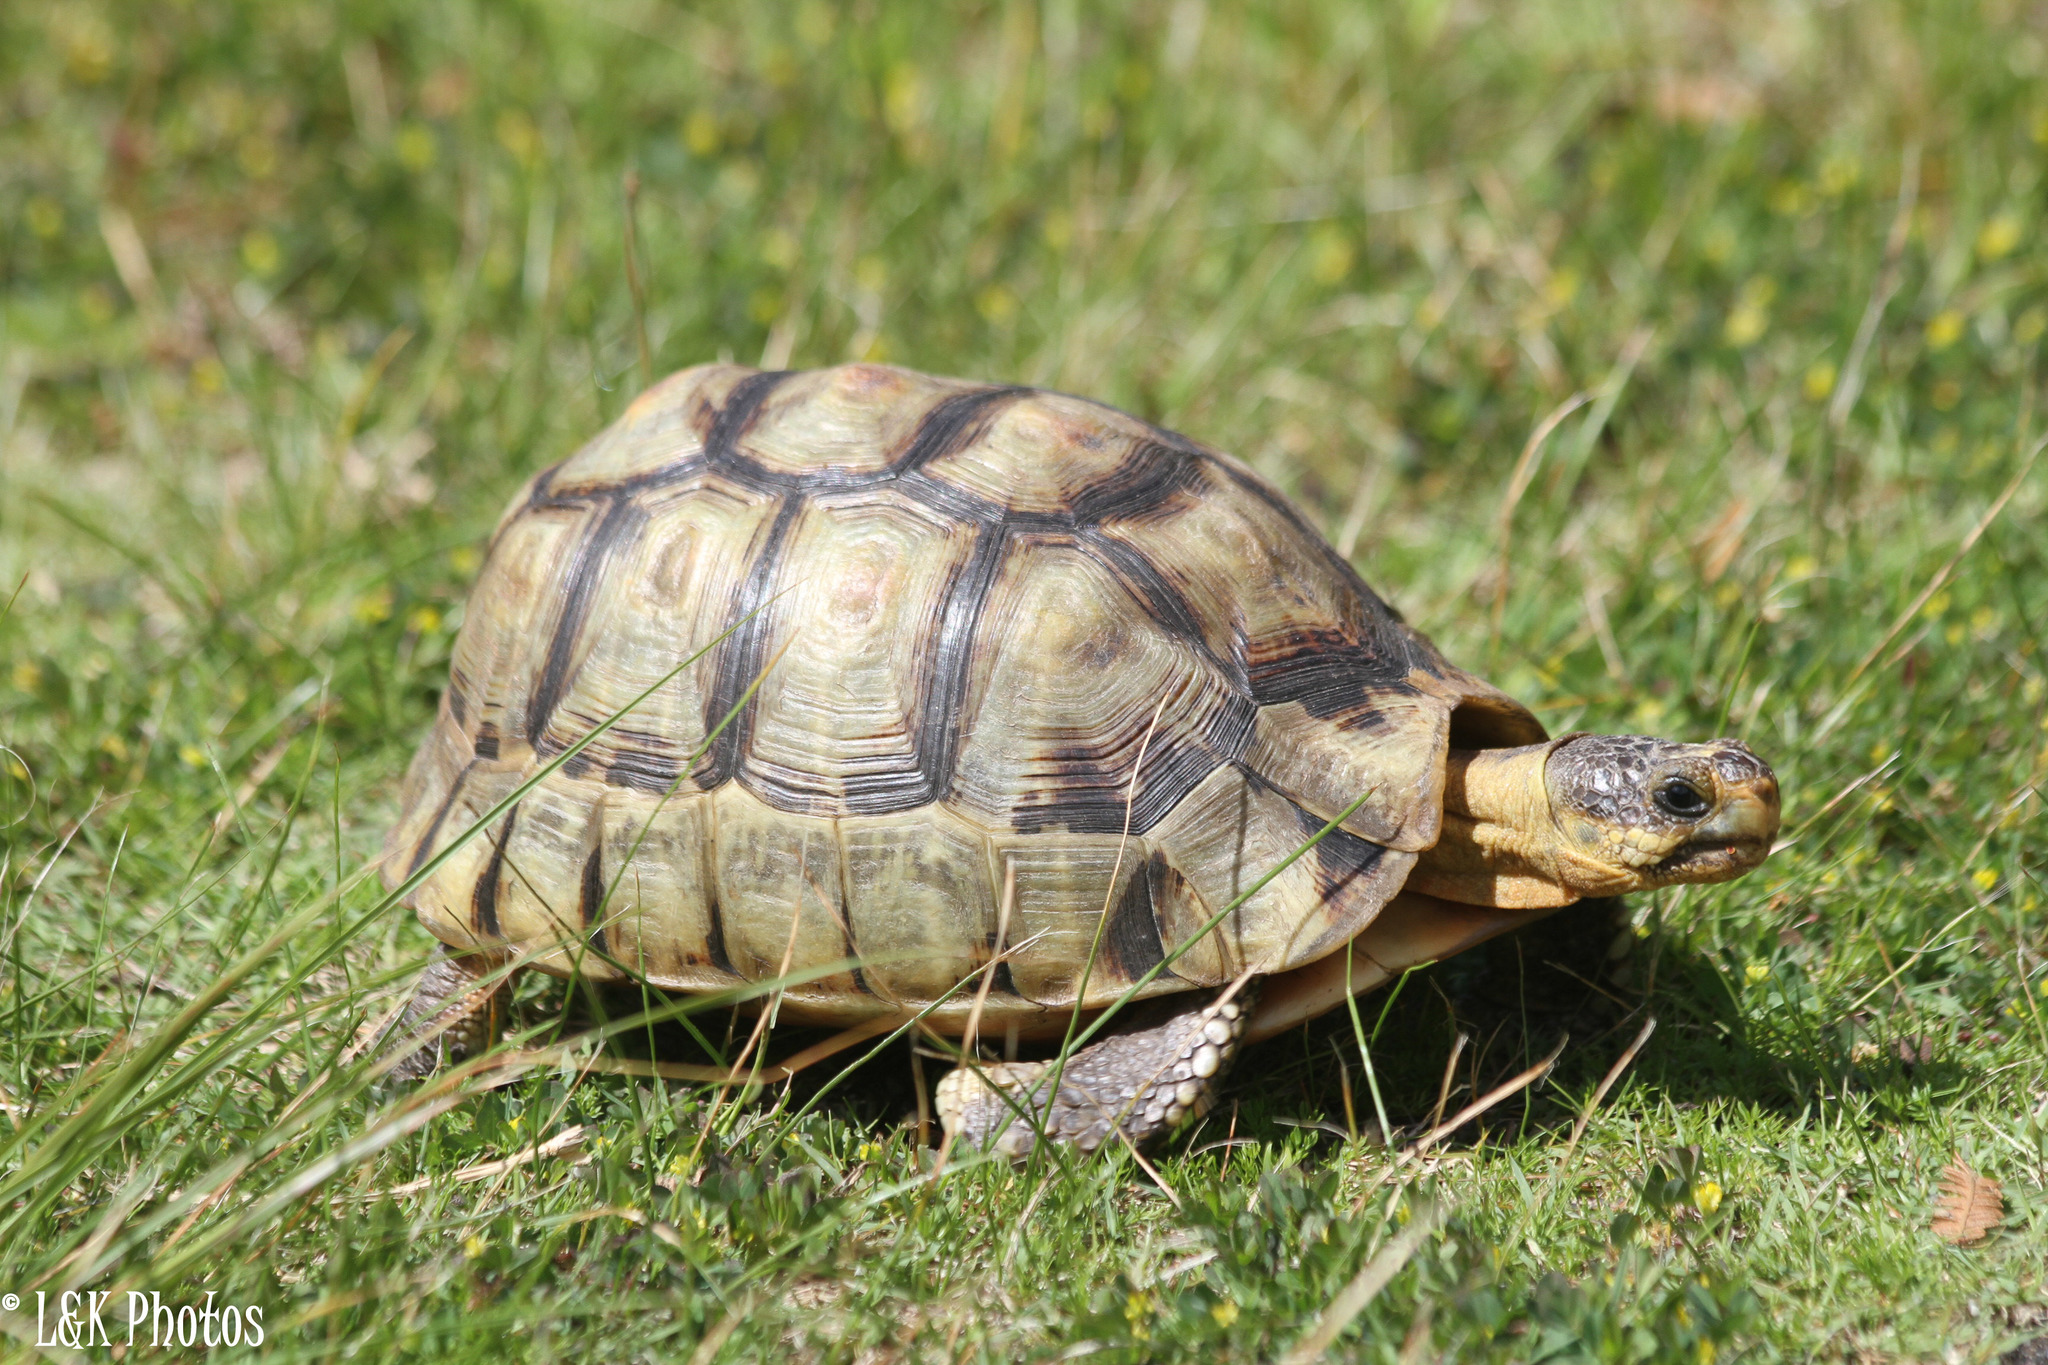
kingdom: Animalia
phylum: Chordata
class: Testudines
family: Testudinidae
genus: Chersina
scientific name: Chersina angulata
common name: South african bowsprit tortoise
